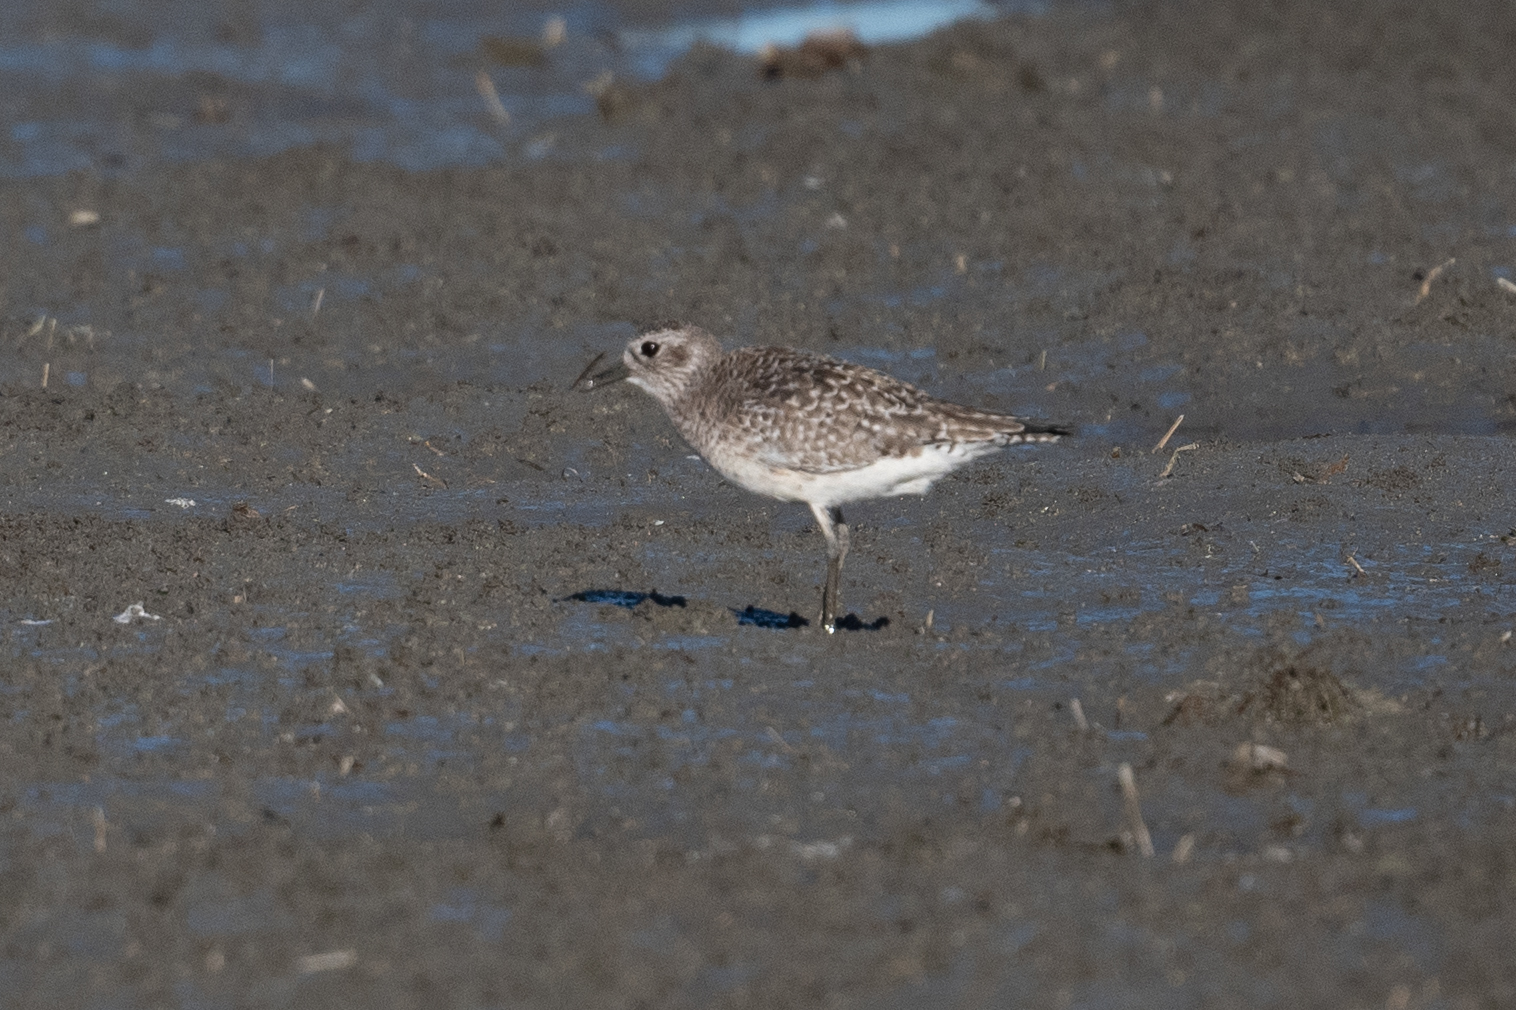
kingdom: Animalia
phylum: Chordata
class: Aves
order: Charadriiformes
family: Charadriidae
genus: Pluvialis
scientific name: Pluvialis squatarola
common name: Grey plover
